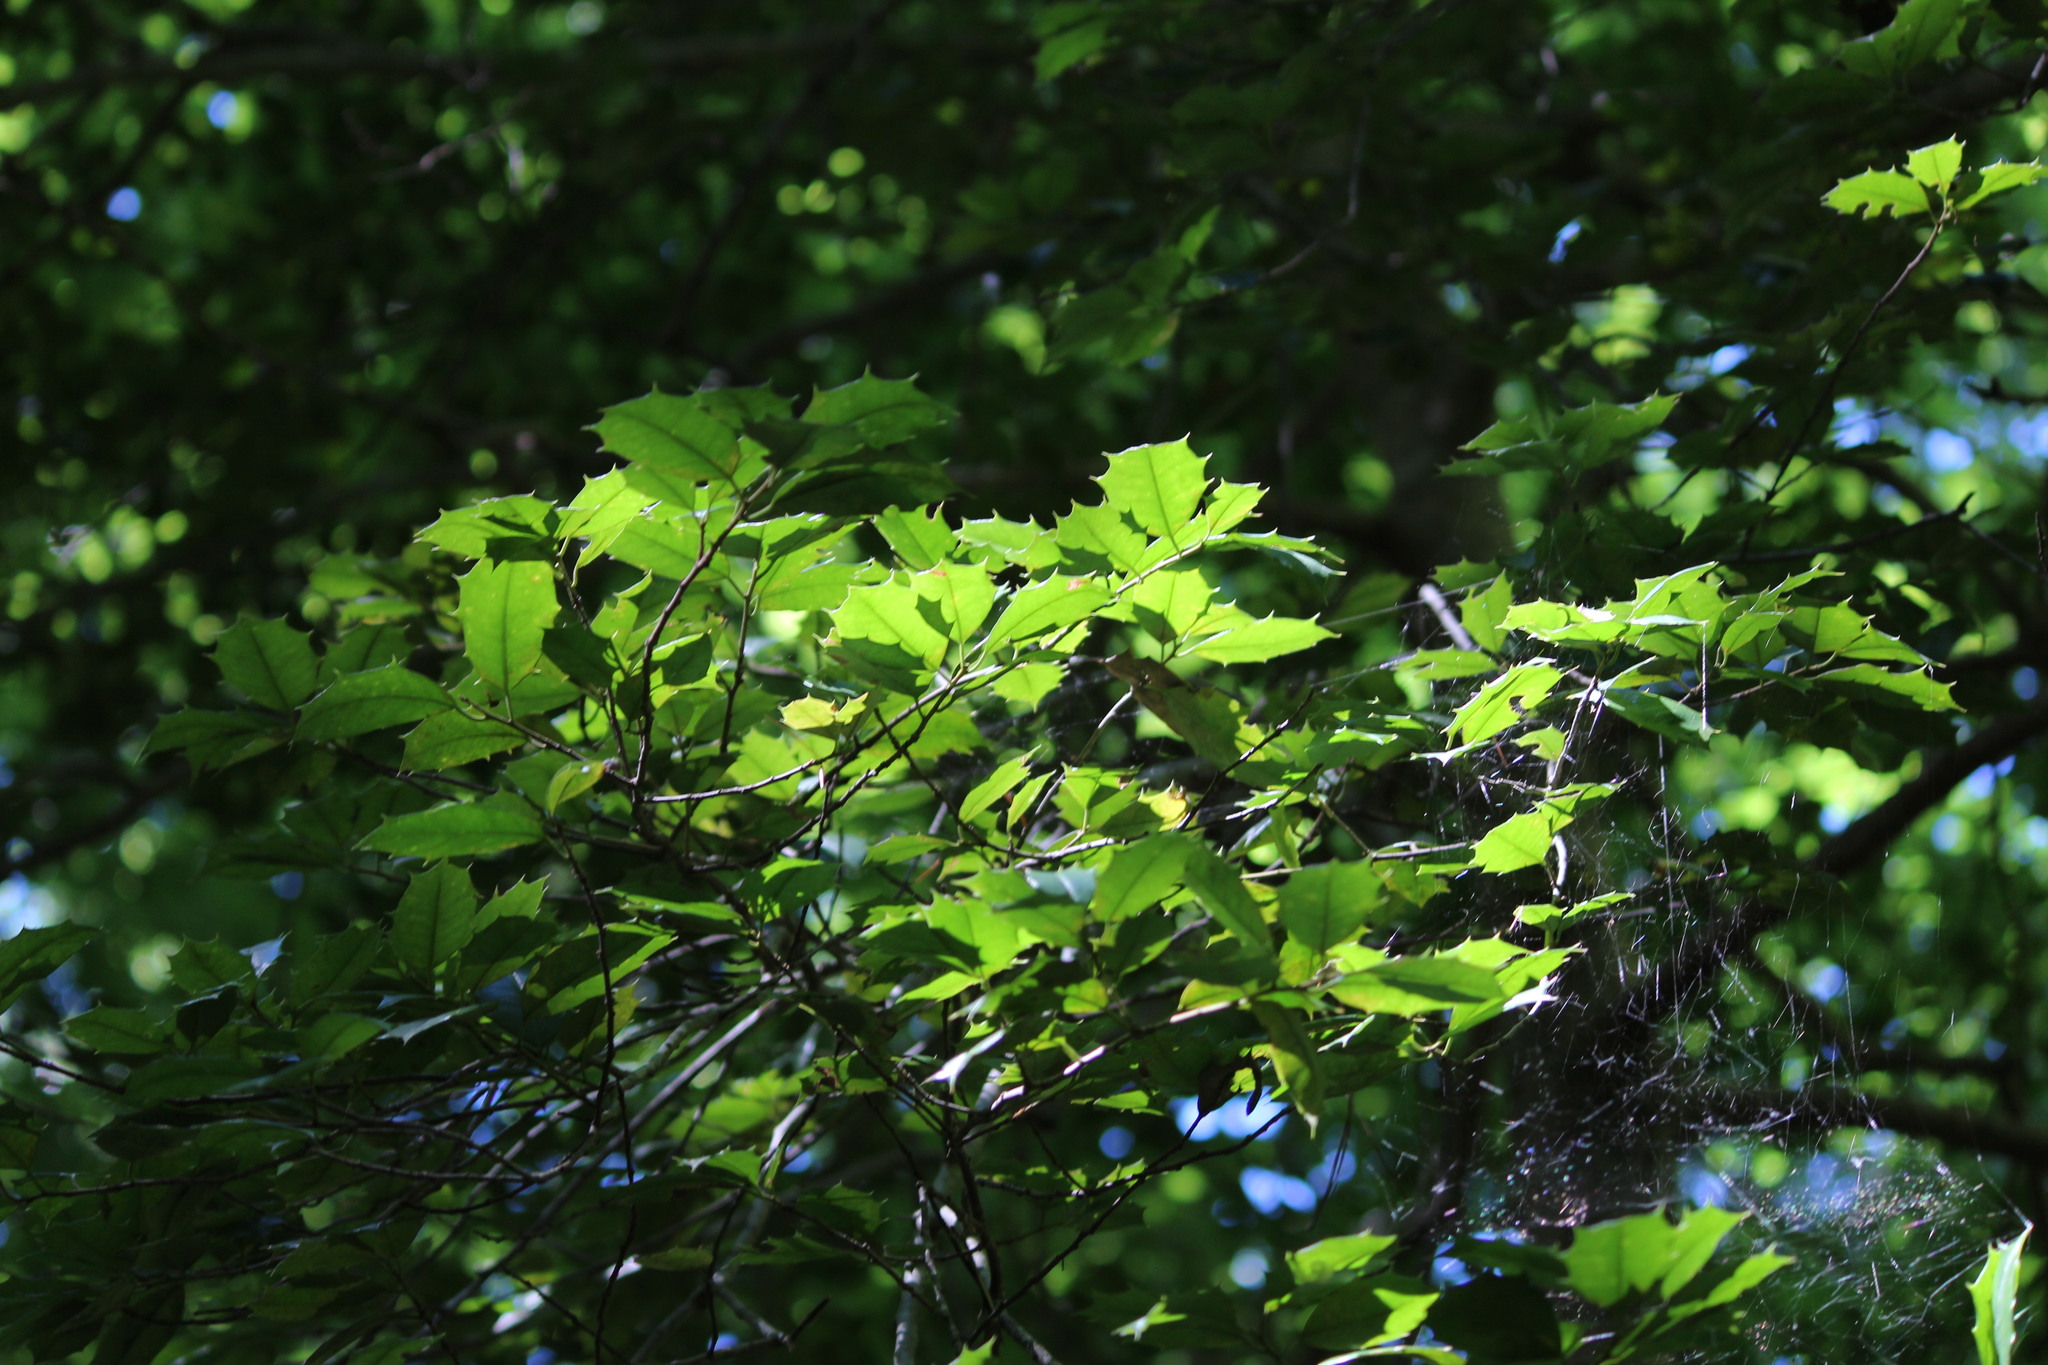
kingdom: Plantae
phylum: Tracheophyta
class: Magnoliopsida
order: Aquifoliales
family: Aquifoliaceae
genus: Ilex
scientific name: Ilex opaca
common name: American holly
